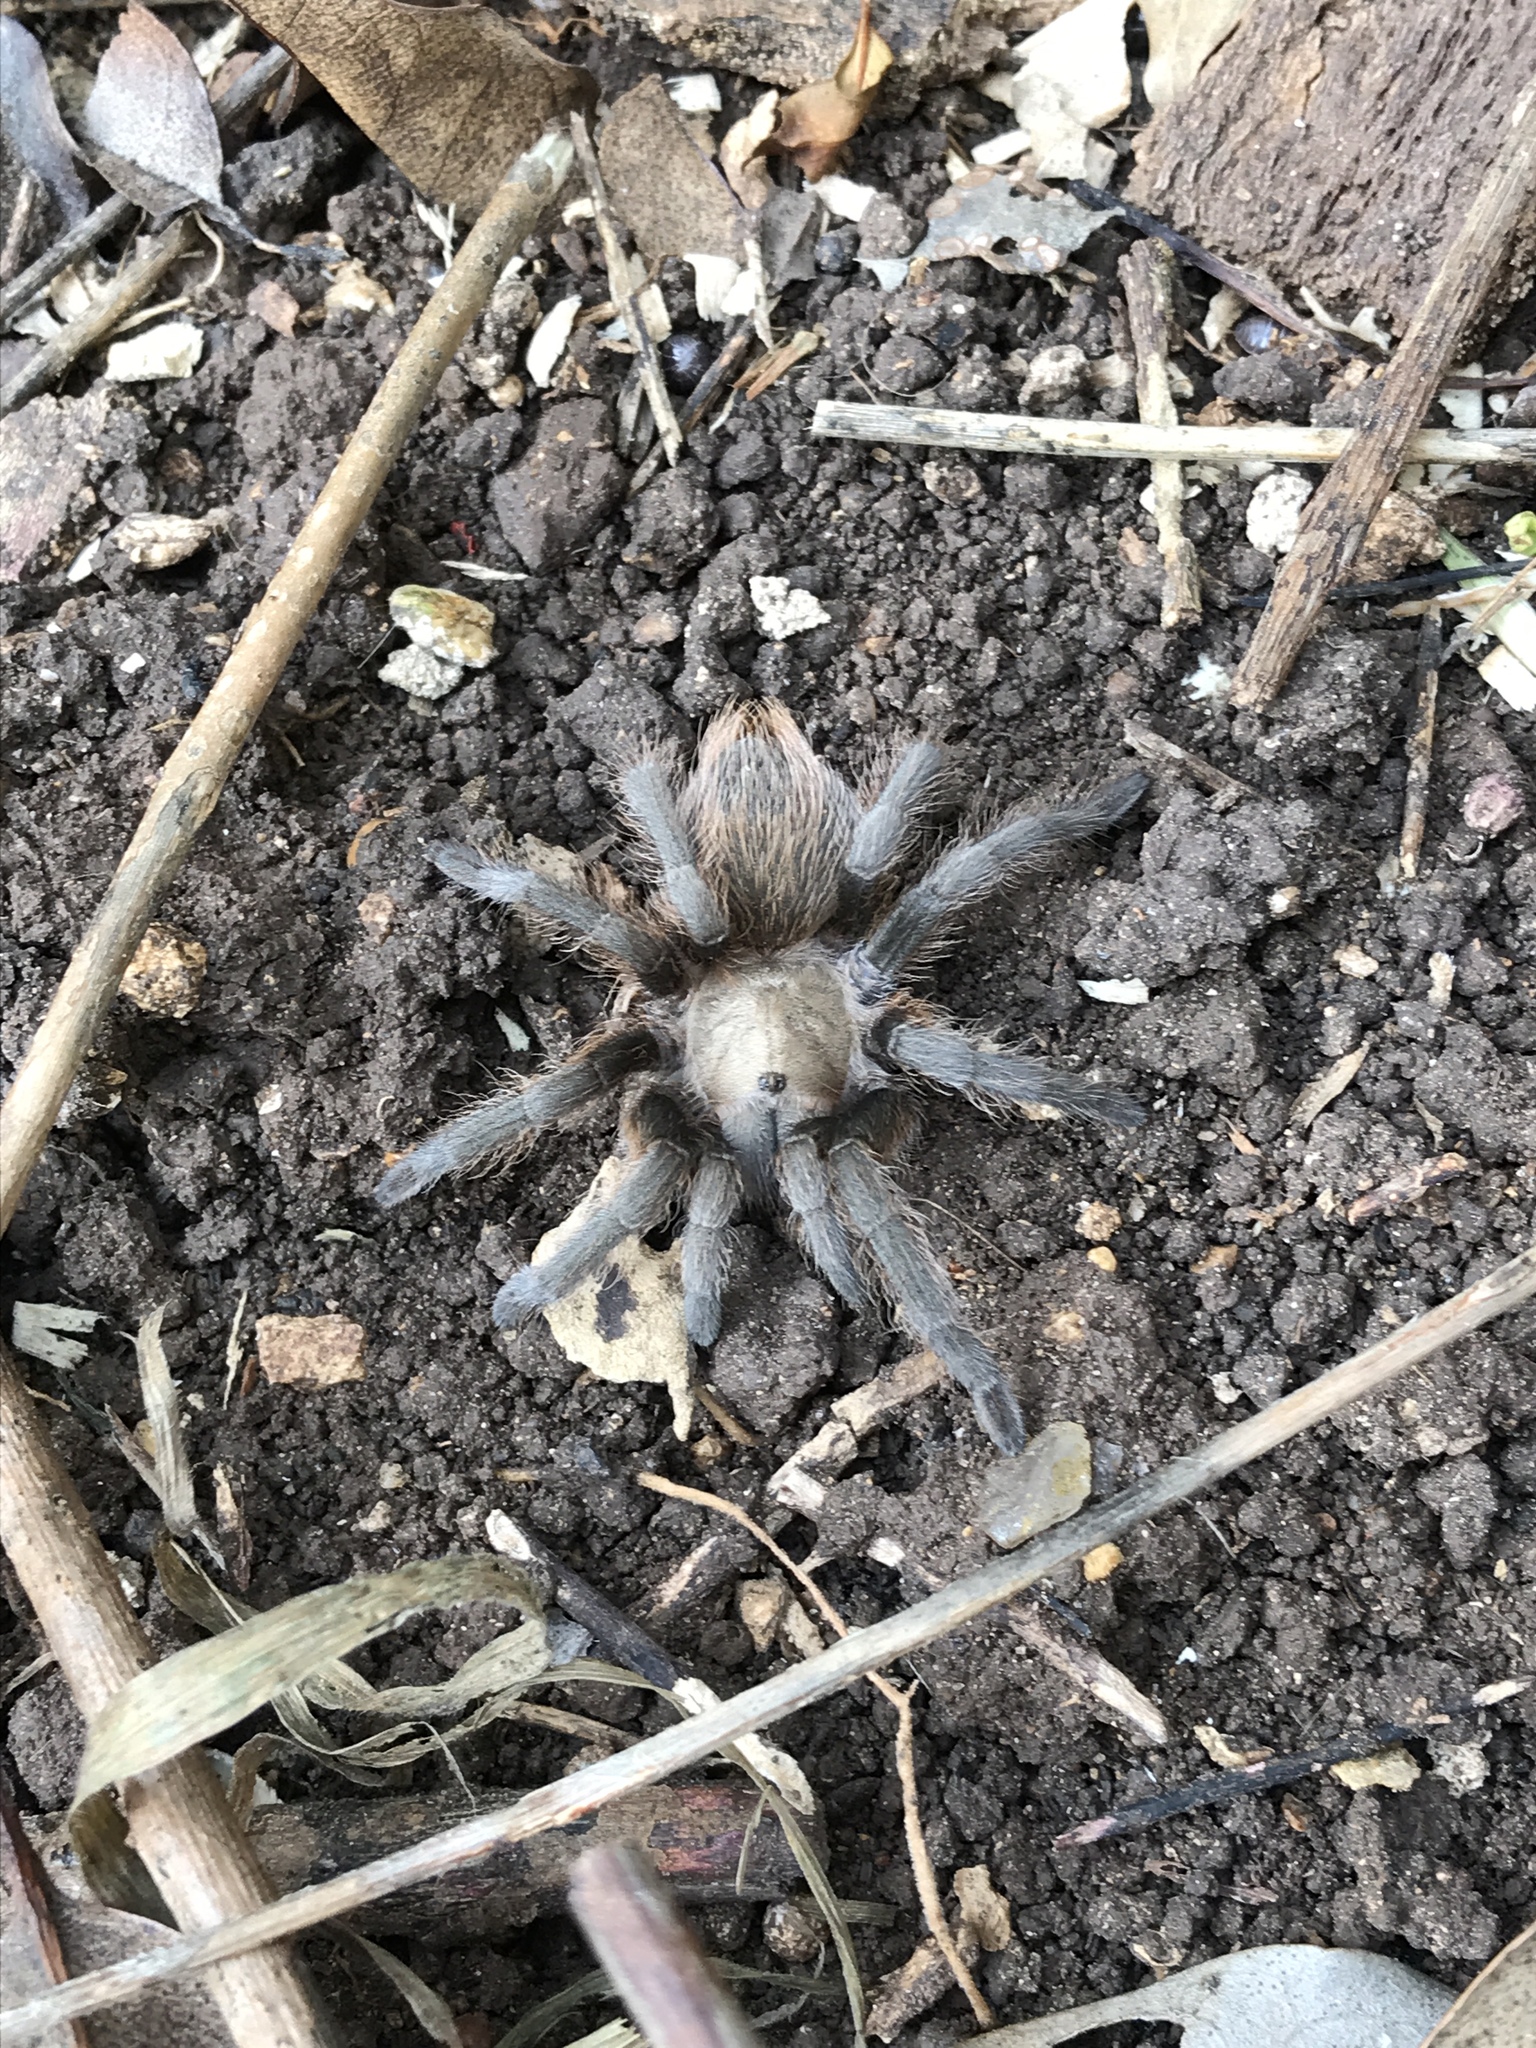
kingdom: Animalia
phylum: Arthropoda
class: Arachnida
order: Araneae
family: Theraphosidae
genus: Aphonopelma
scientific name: Aphonopelma hentzi
